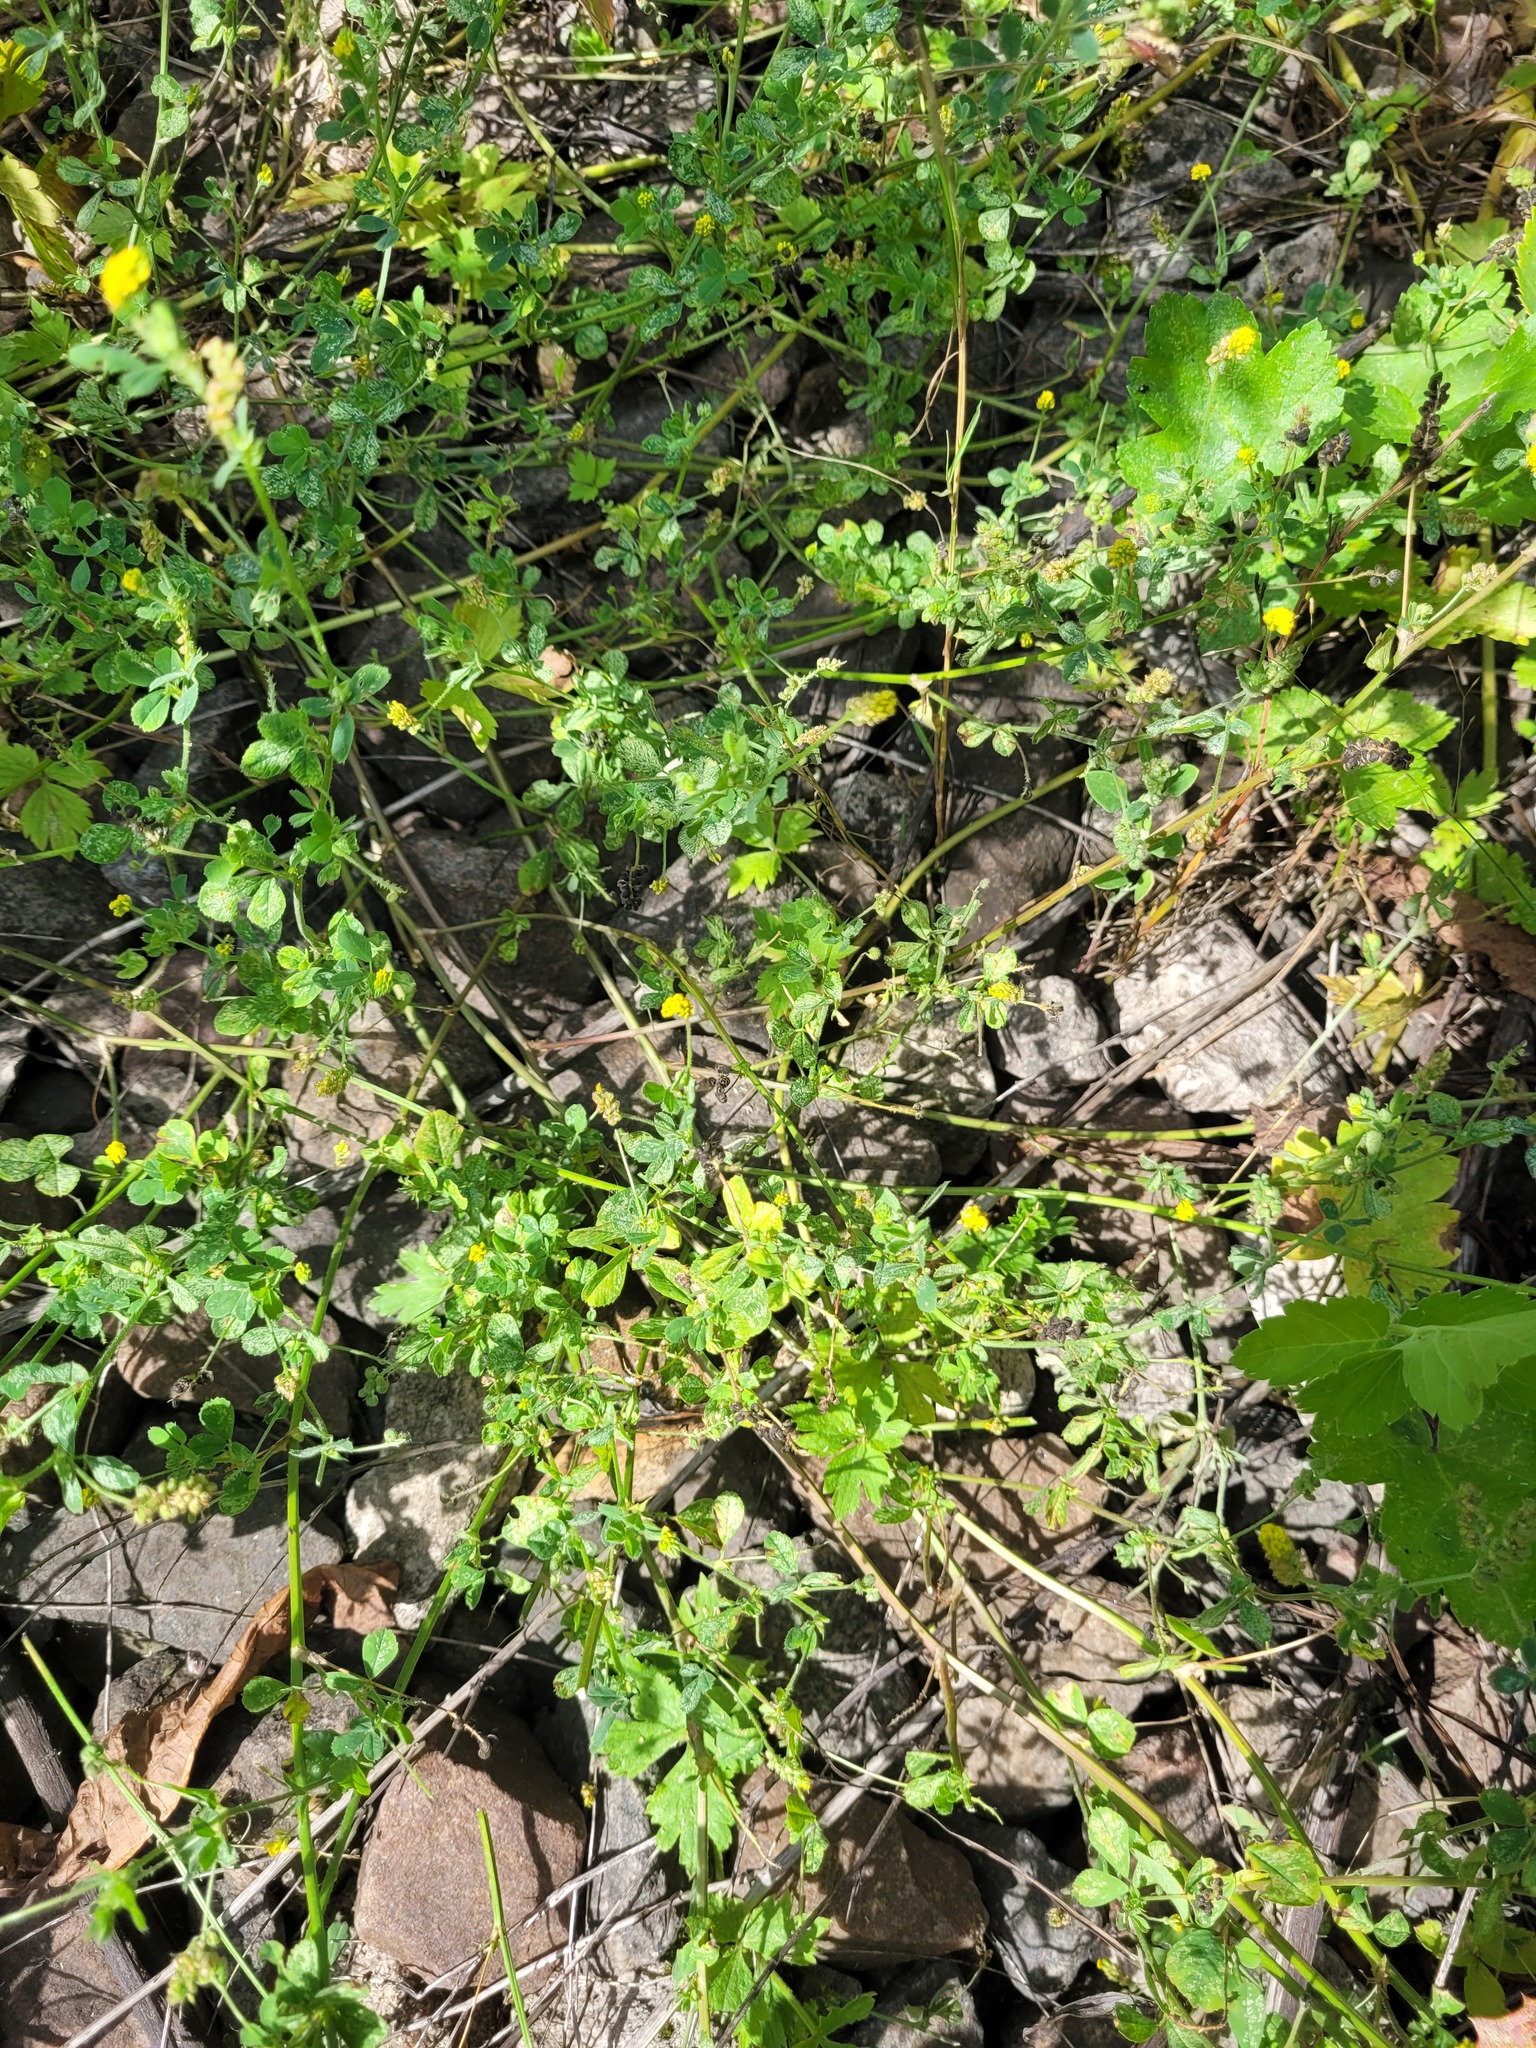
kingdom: Plantae
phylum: Tracheophyta
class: Magnoliopsida
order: Fabales
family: Fabaceae
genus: Medicago
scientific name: Medicago lupulina
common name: Black medick
